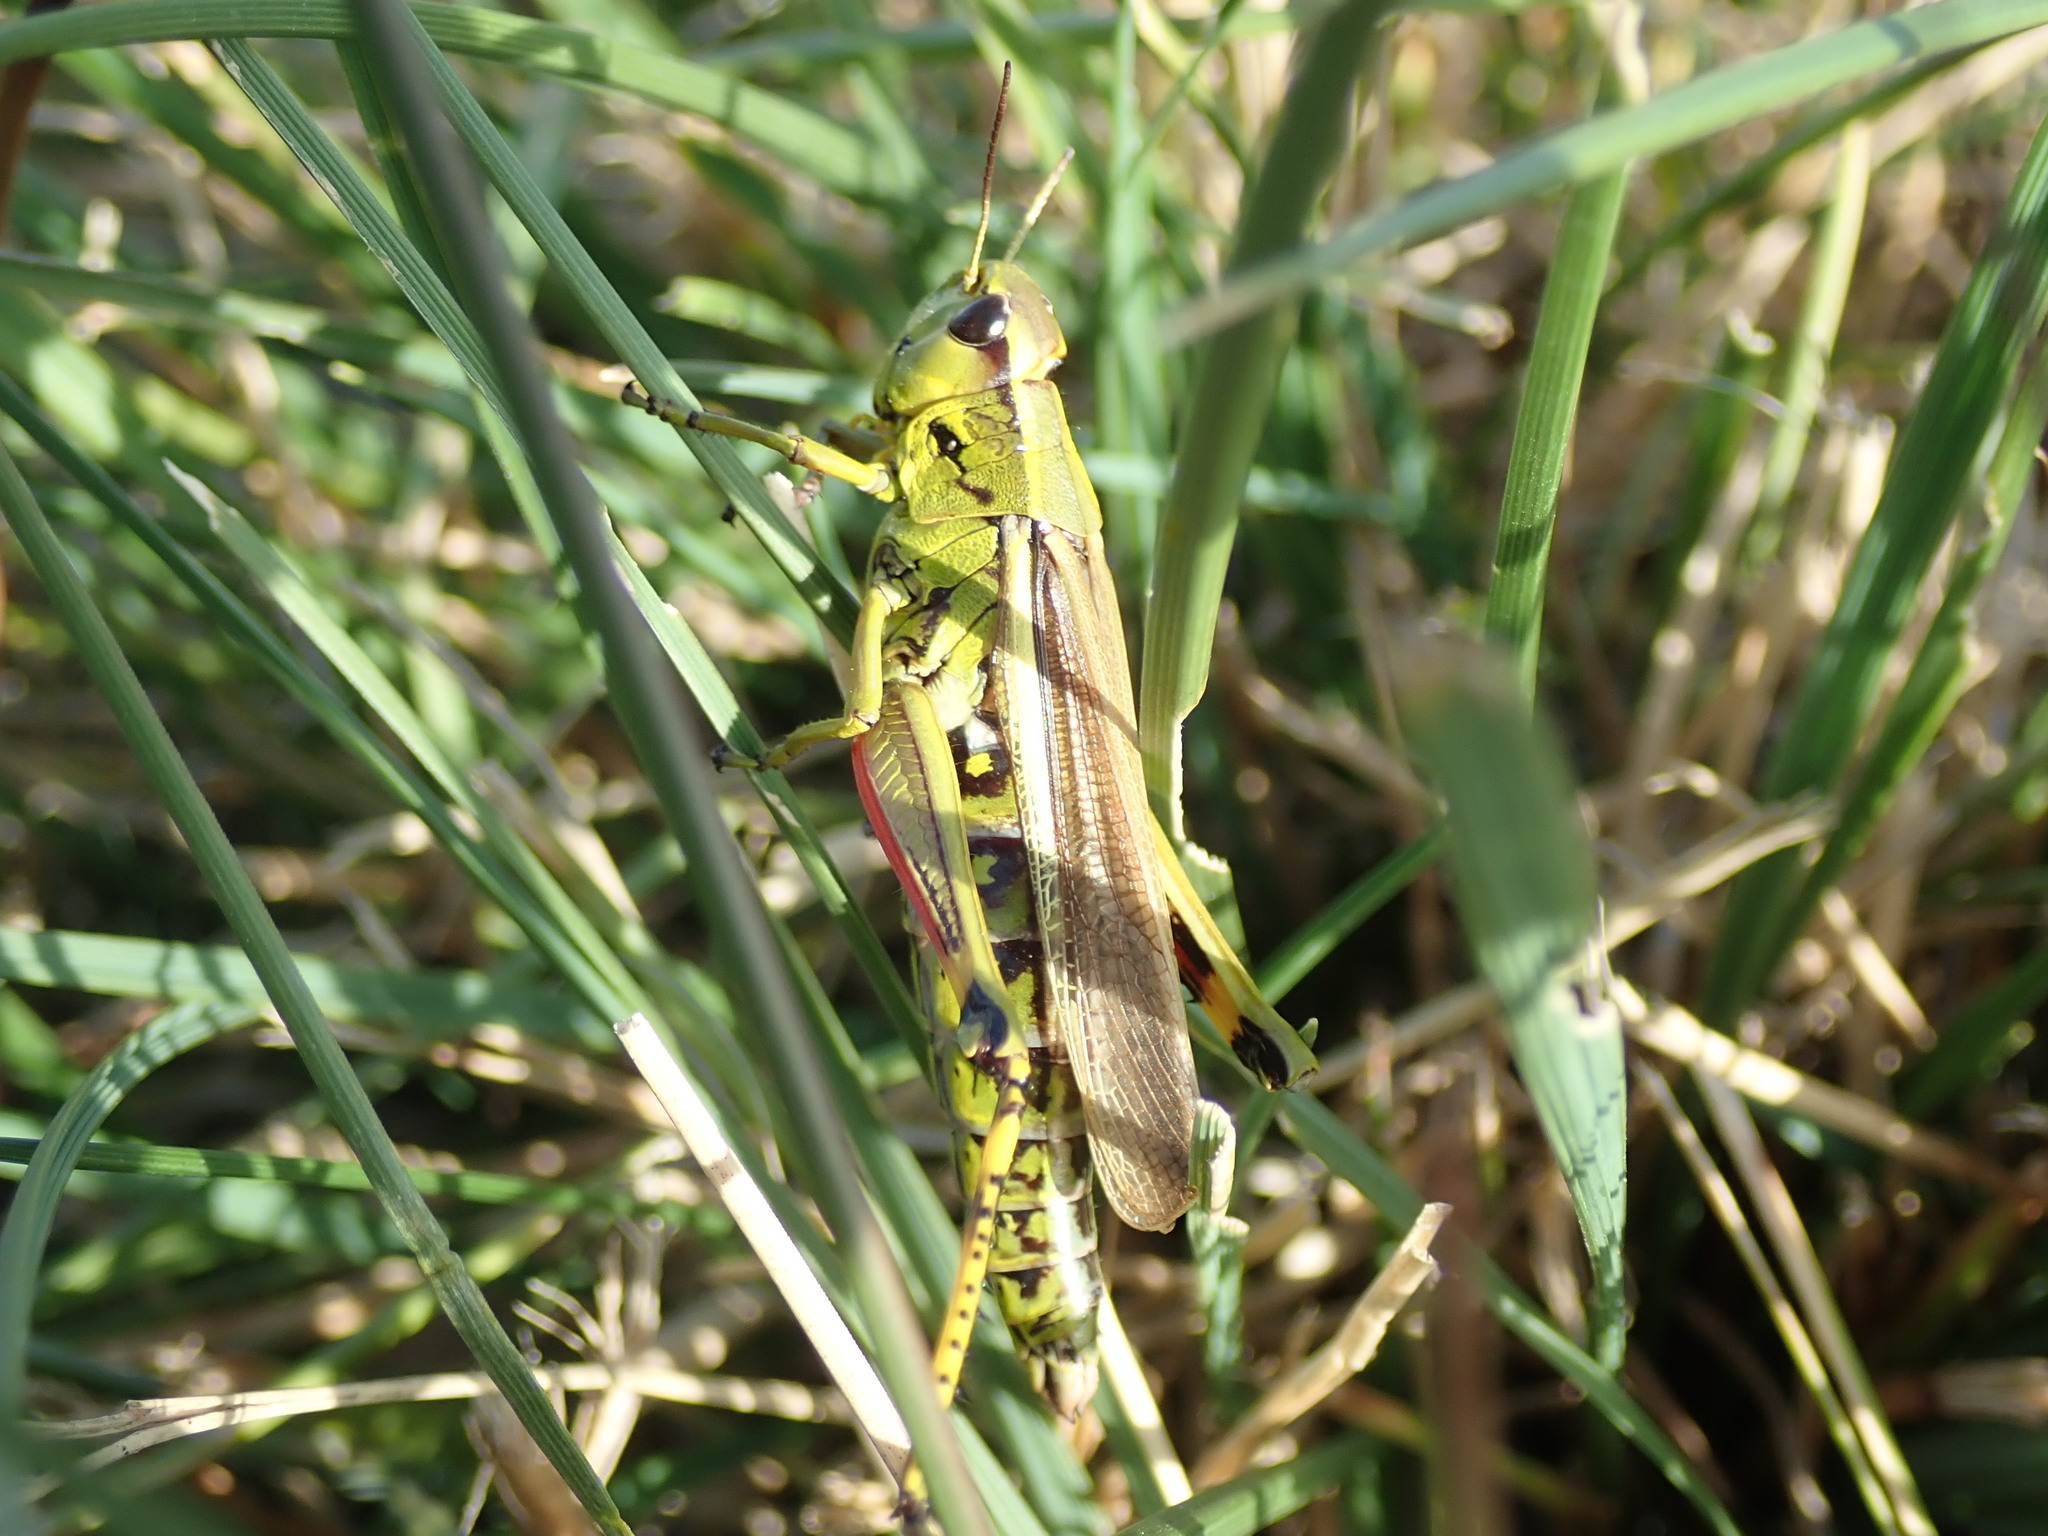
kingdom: Animalia
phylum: Arthropoda
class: Insecta
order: Orthoptera
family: Acrididae
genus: Stethophyma
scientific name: Stethophyma grossum
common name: Large marsh grasshopper
